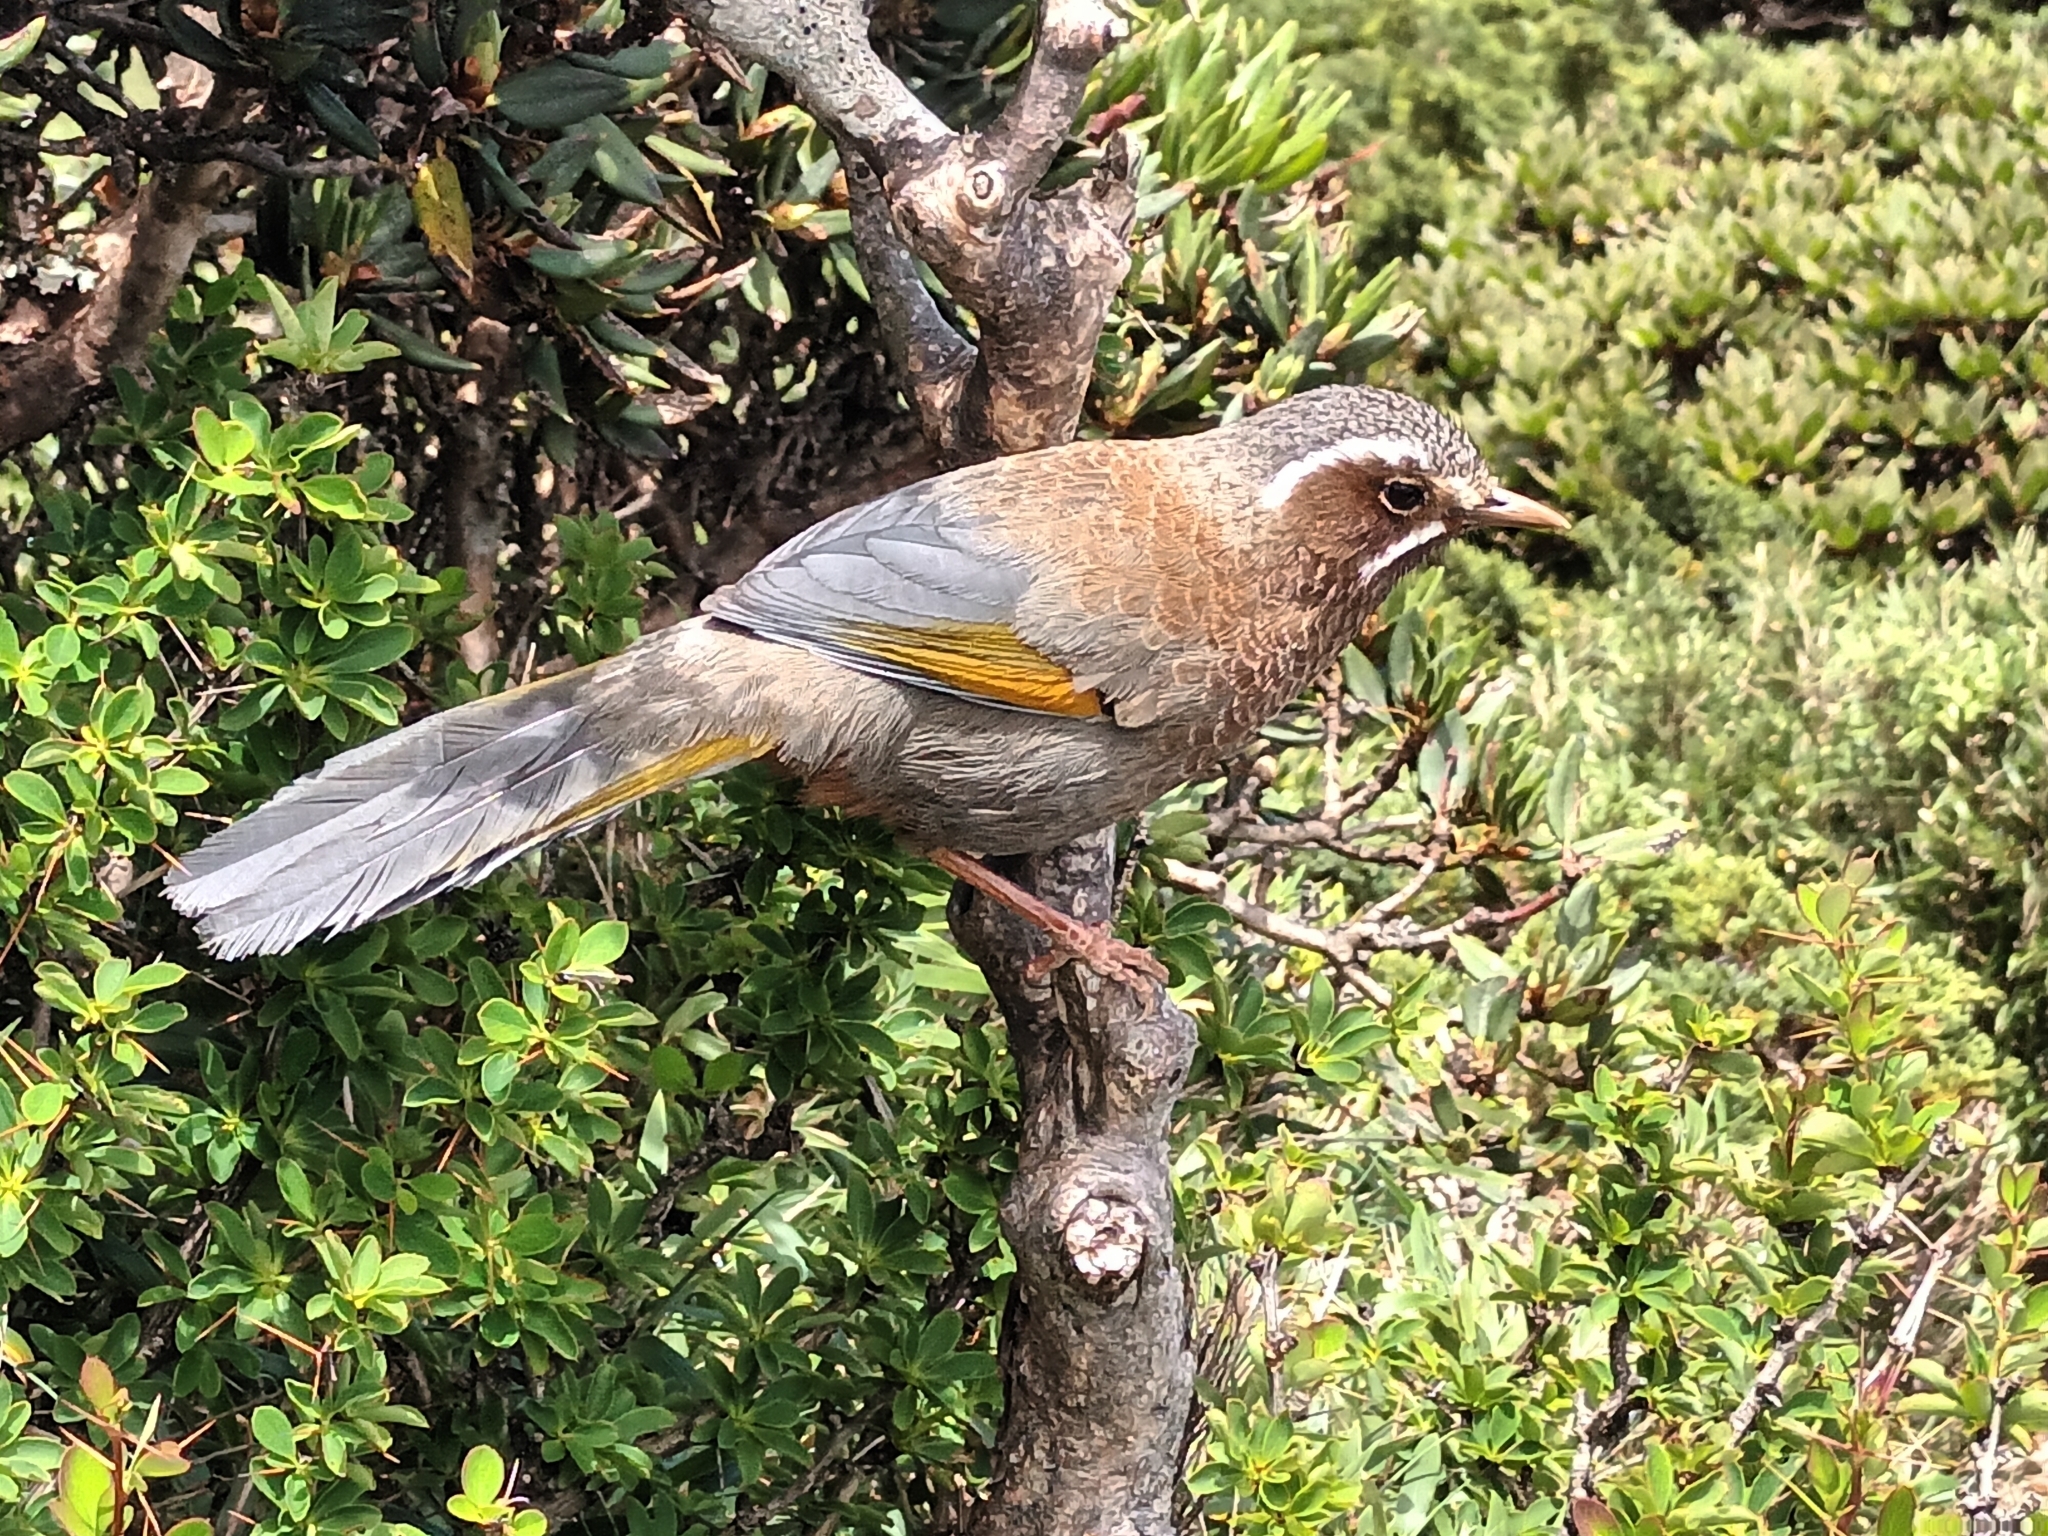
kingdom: Animalia
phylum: Chordata
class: Aves
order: Passeriformes
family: Leiothrichidae
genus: Trochalopteron
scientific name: Trochalopteron morrisonianum
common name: White-whiskered laughingthrush
